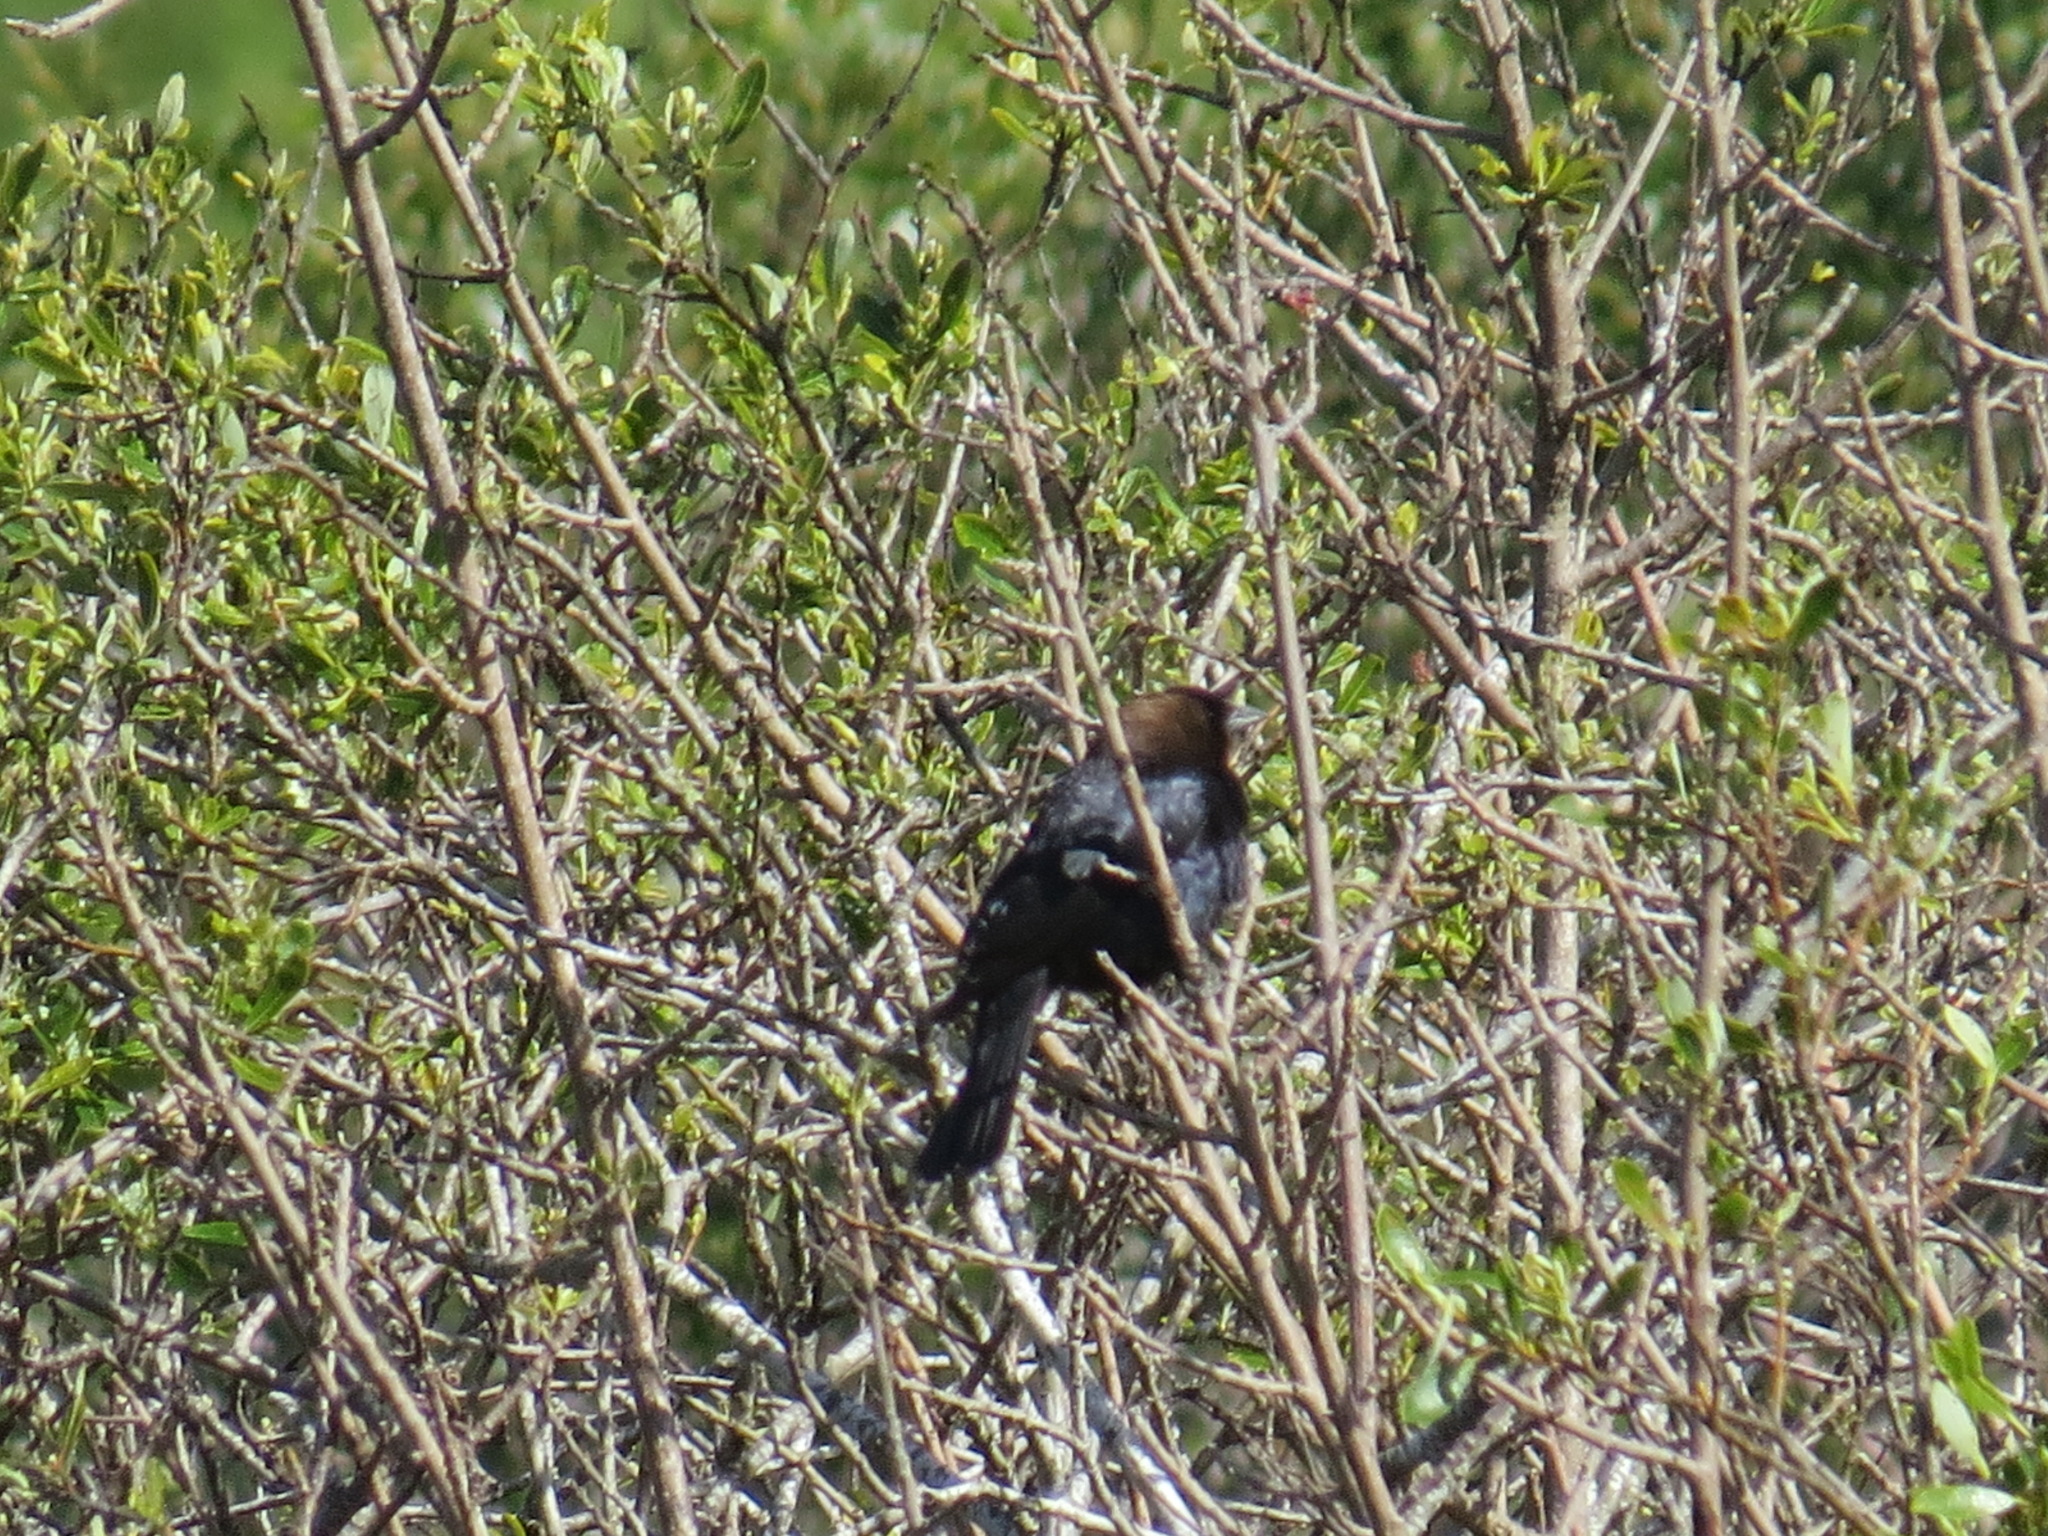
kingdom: Animalia
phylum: Chordata
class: Aves
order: Passeriformes
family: Icteridae
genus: Molothrus
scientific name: Molothrus ater
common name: Brown-headed cowbird
